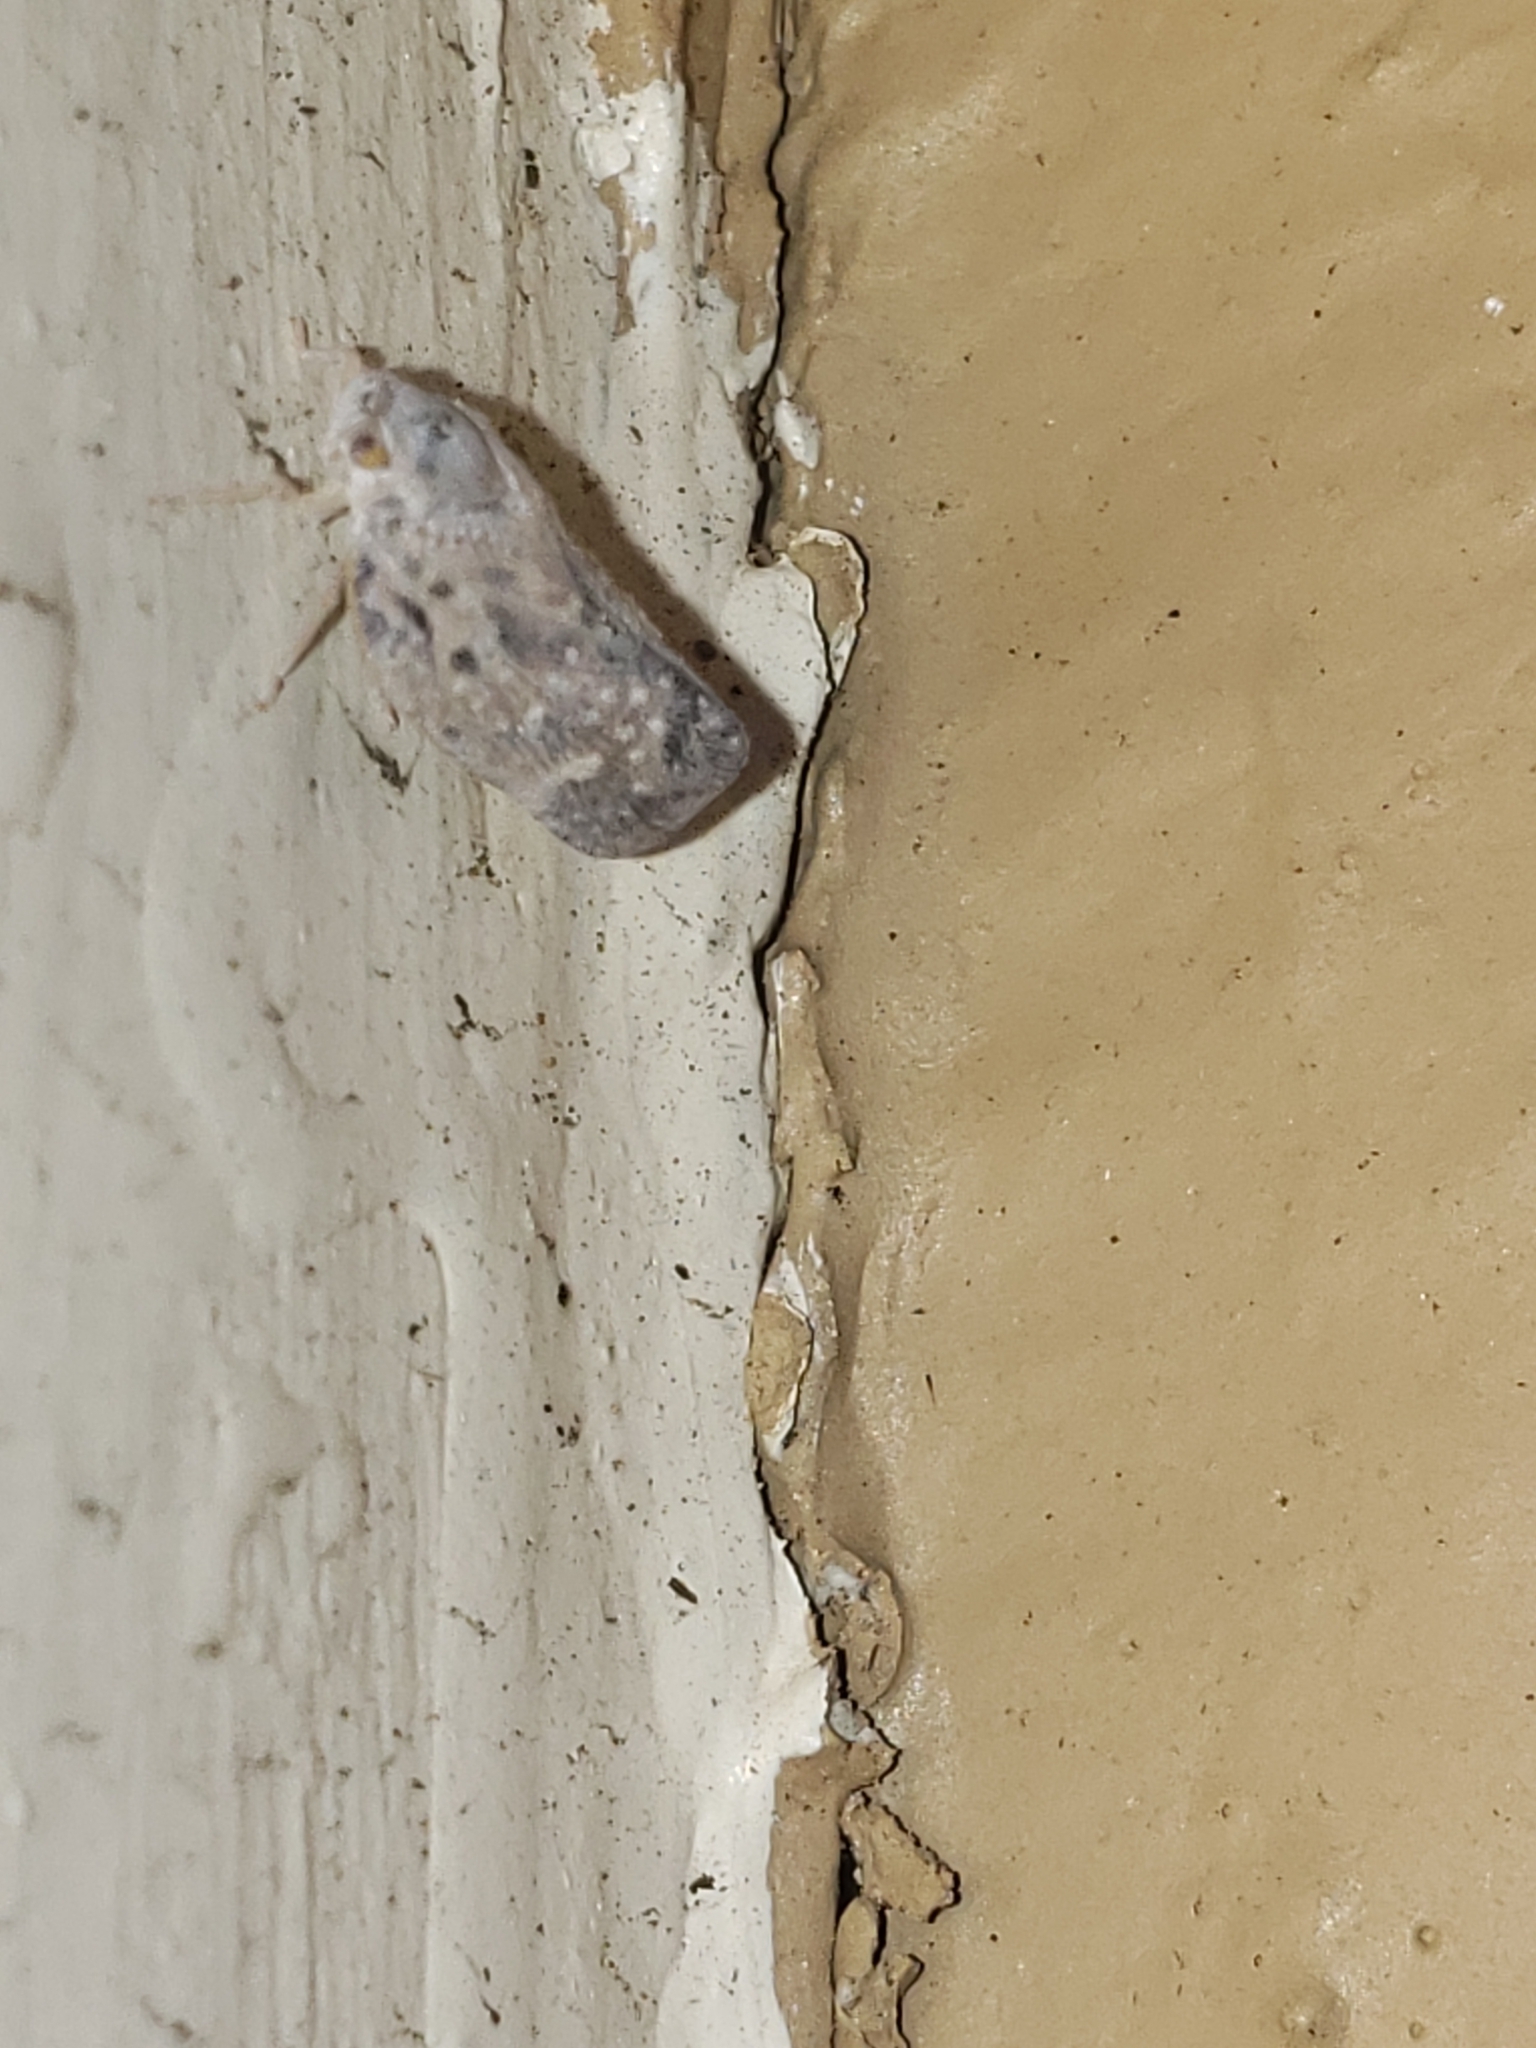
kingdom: Animalia
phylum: Arthropoda
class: Insecta
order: Hemiptera
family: Flatidae
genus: Metcalfa
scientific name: Metcalfa pruinosa
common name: Citrus flatid planthopper
